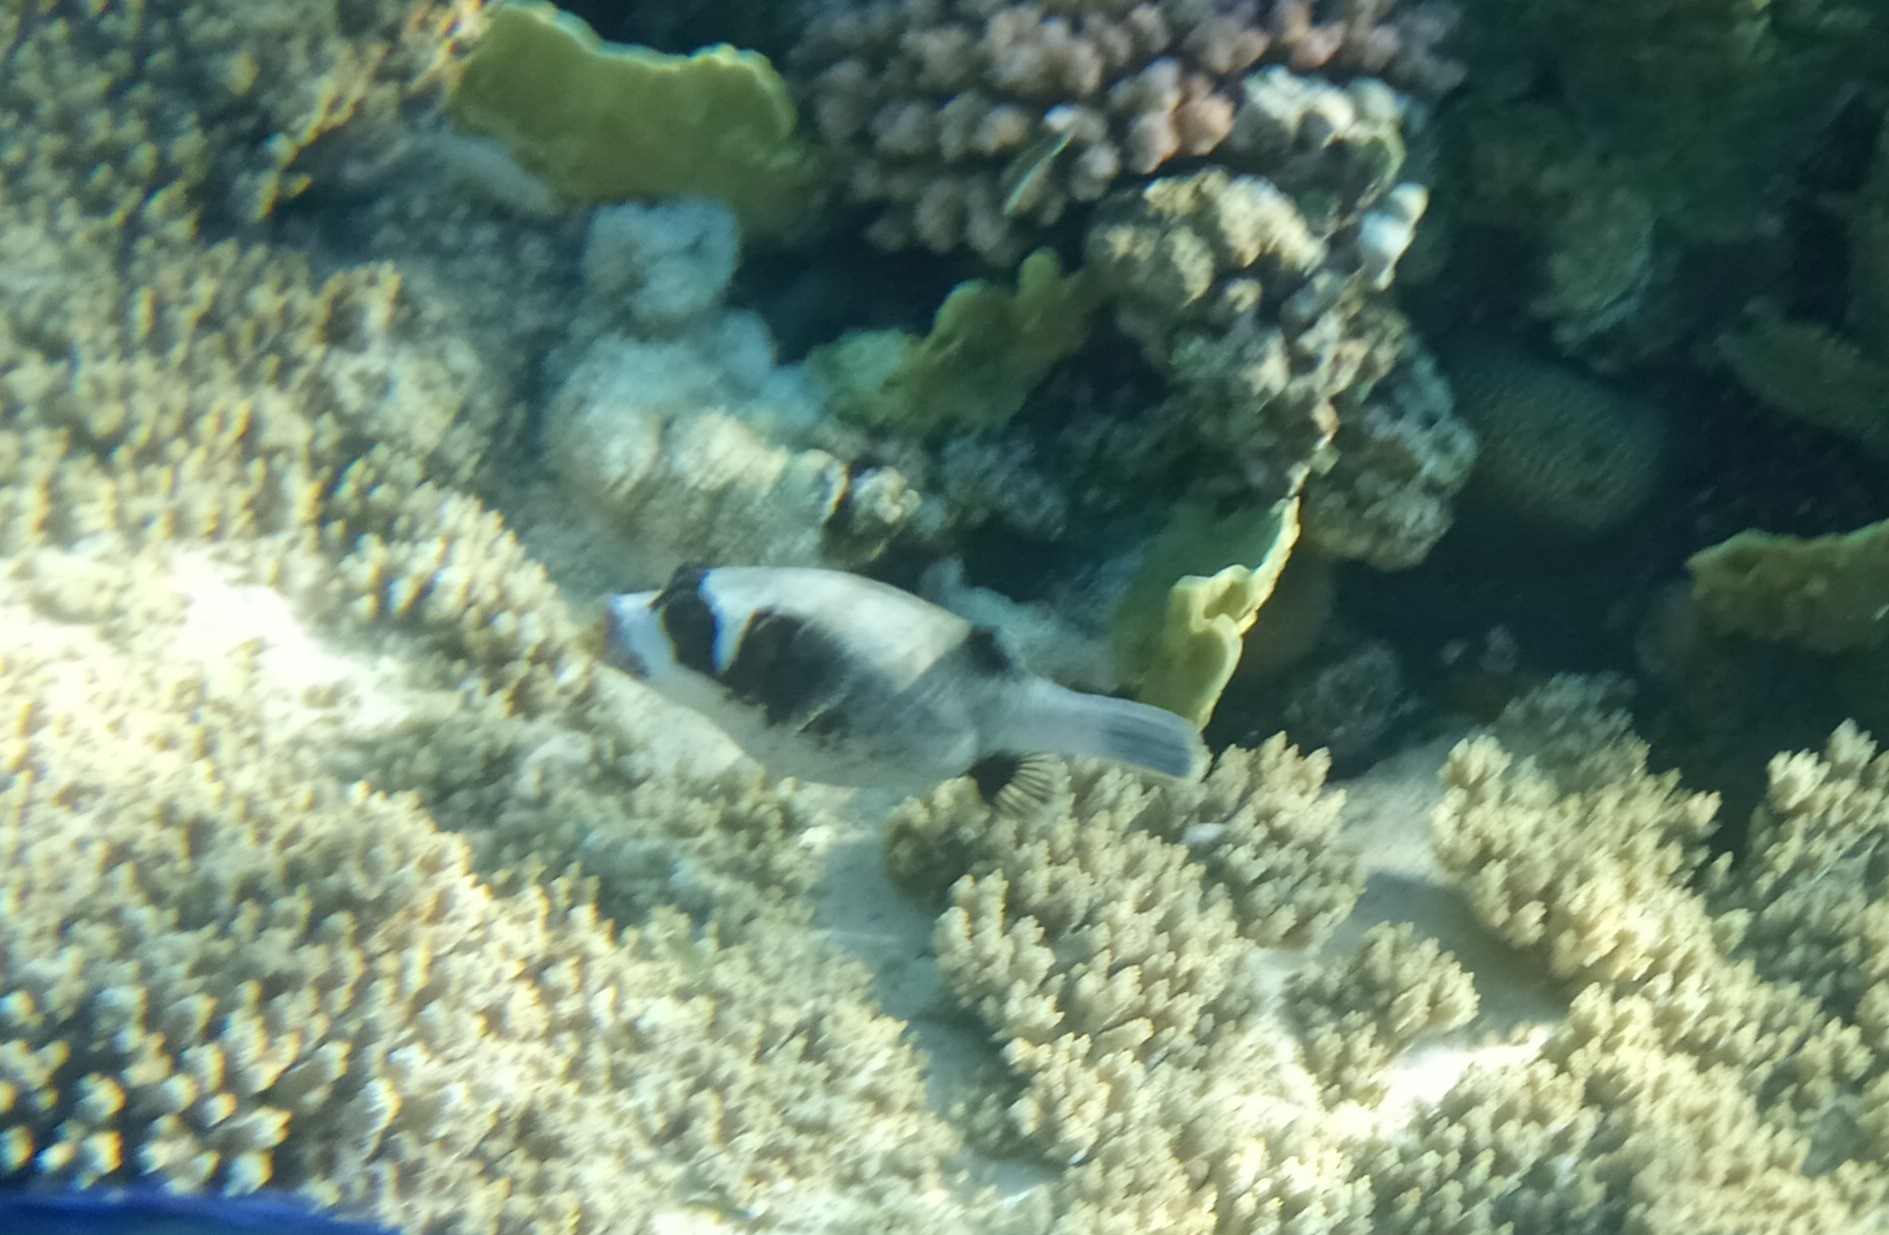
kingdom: Animalia
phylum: Chordata
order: Tetraodontiformes
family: Tetraodontidae
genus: Arothron
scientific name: Arothron diadematus
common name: Masked puffer
